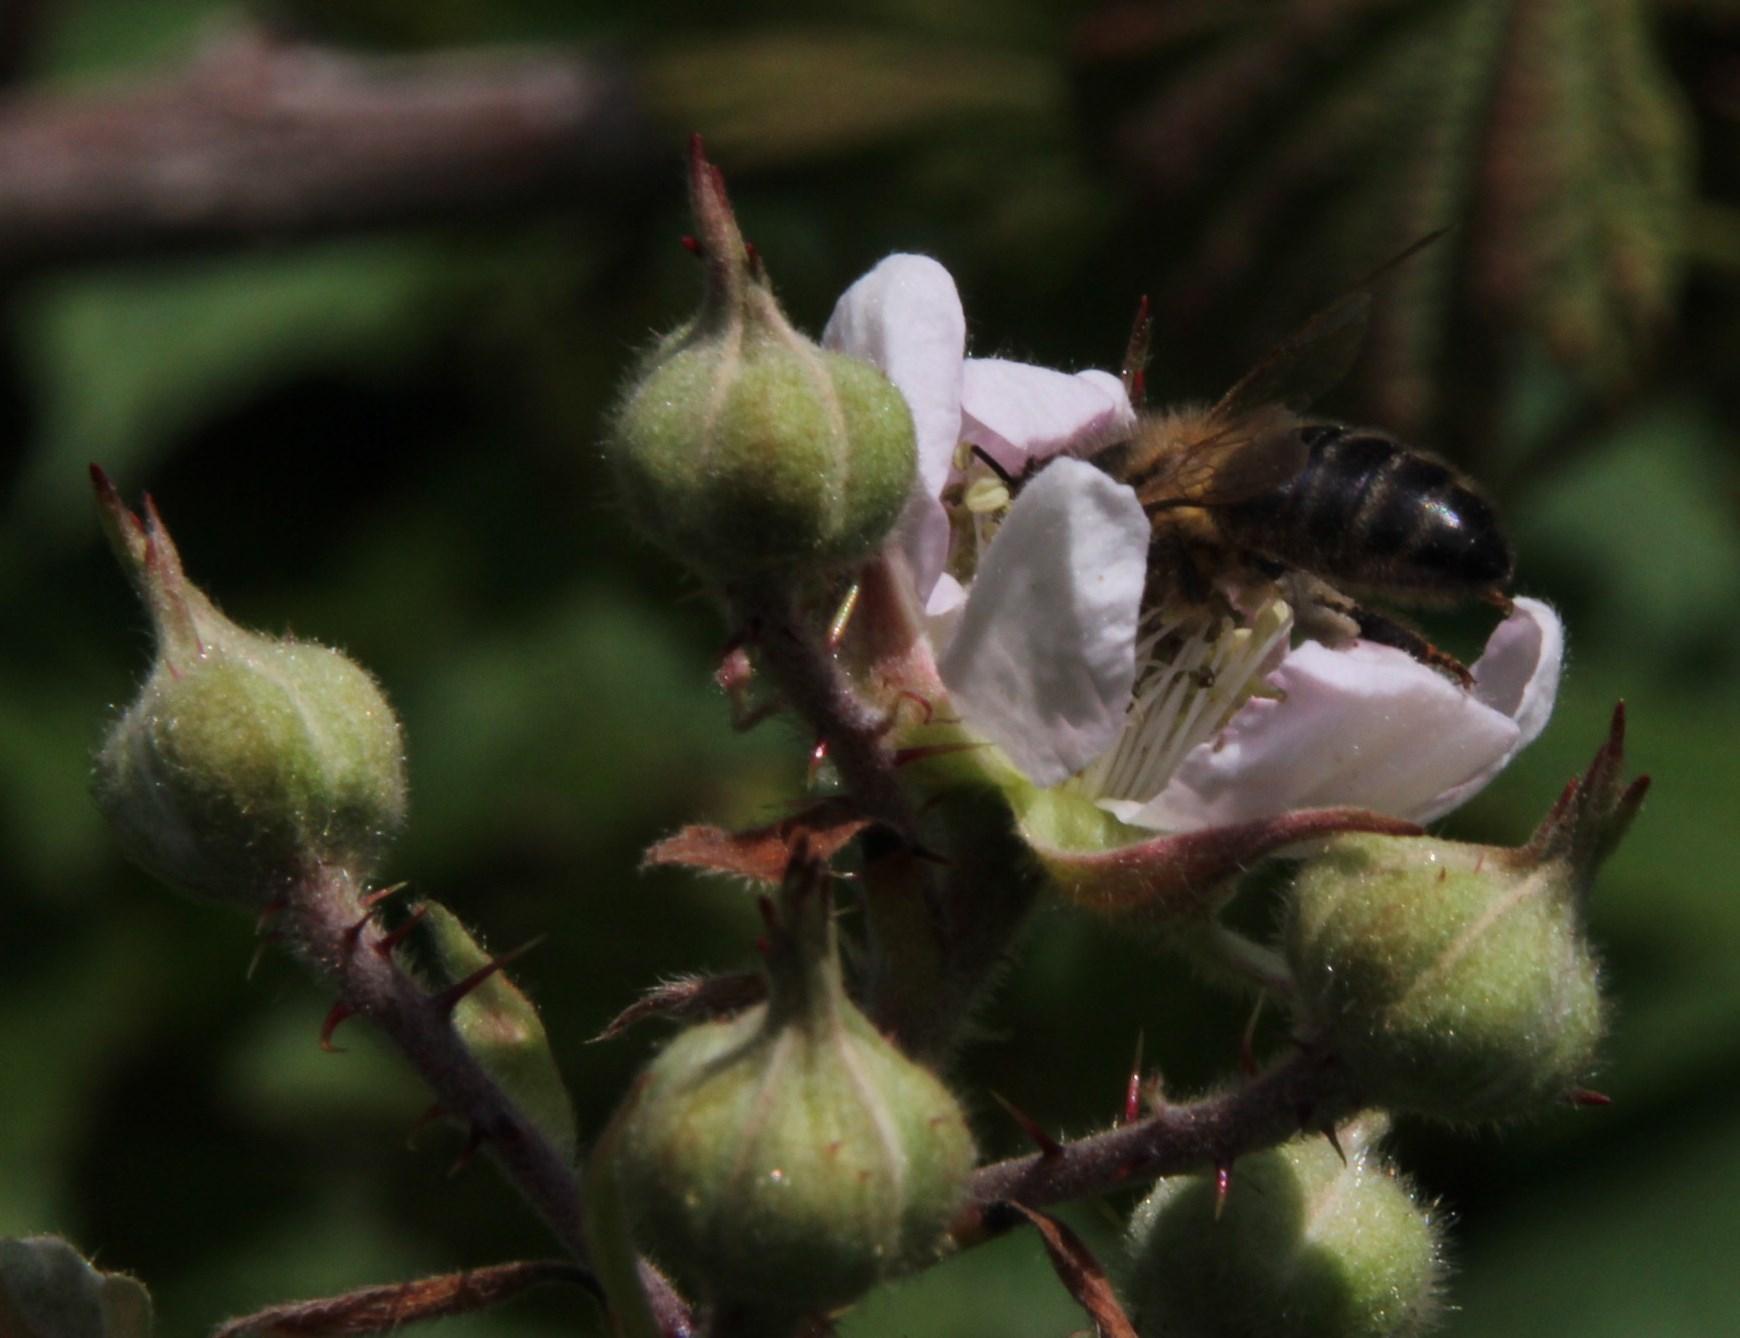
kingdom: Animalia
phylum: Arthropoda
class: Insecta
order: Hymenoptera
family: Apidae
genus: Apis
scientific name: Apis mellifera
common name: Honey bee
